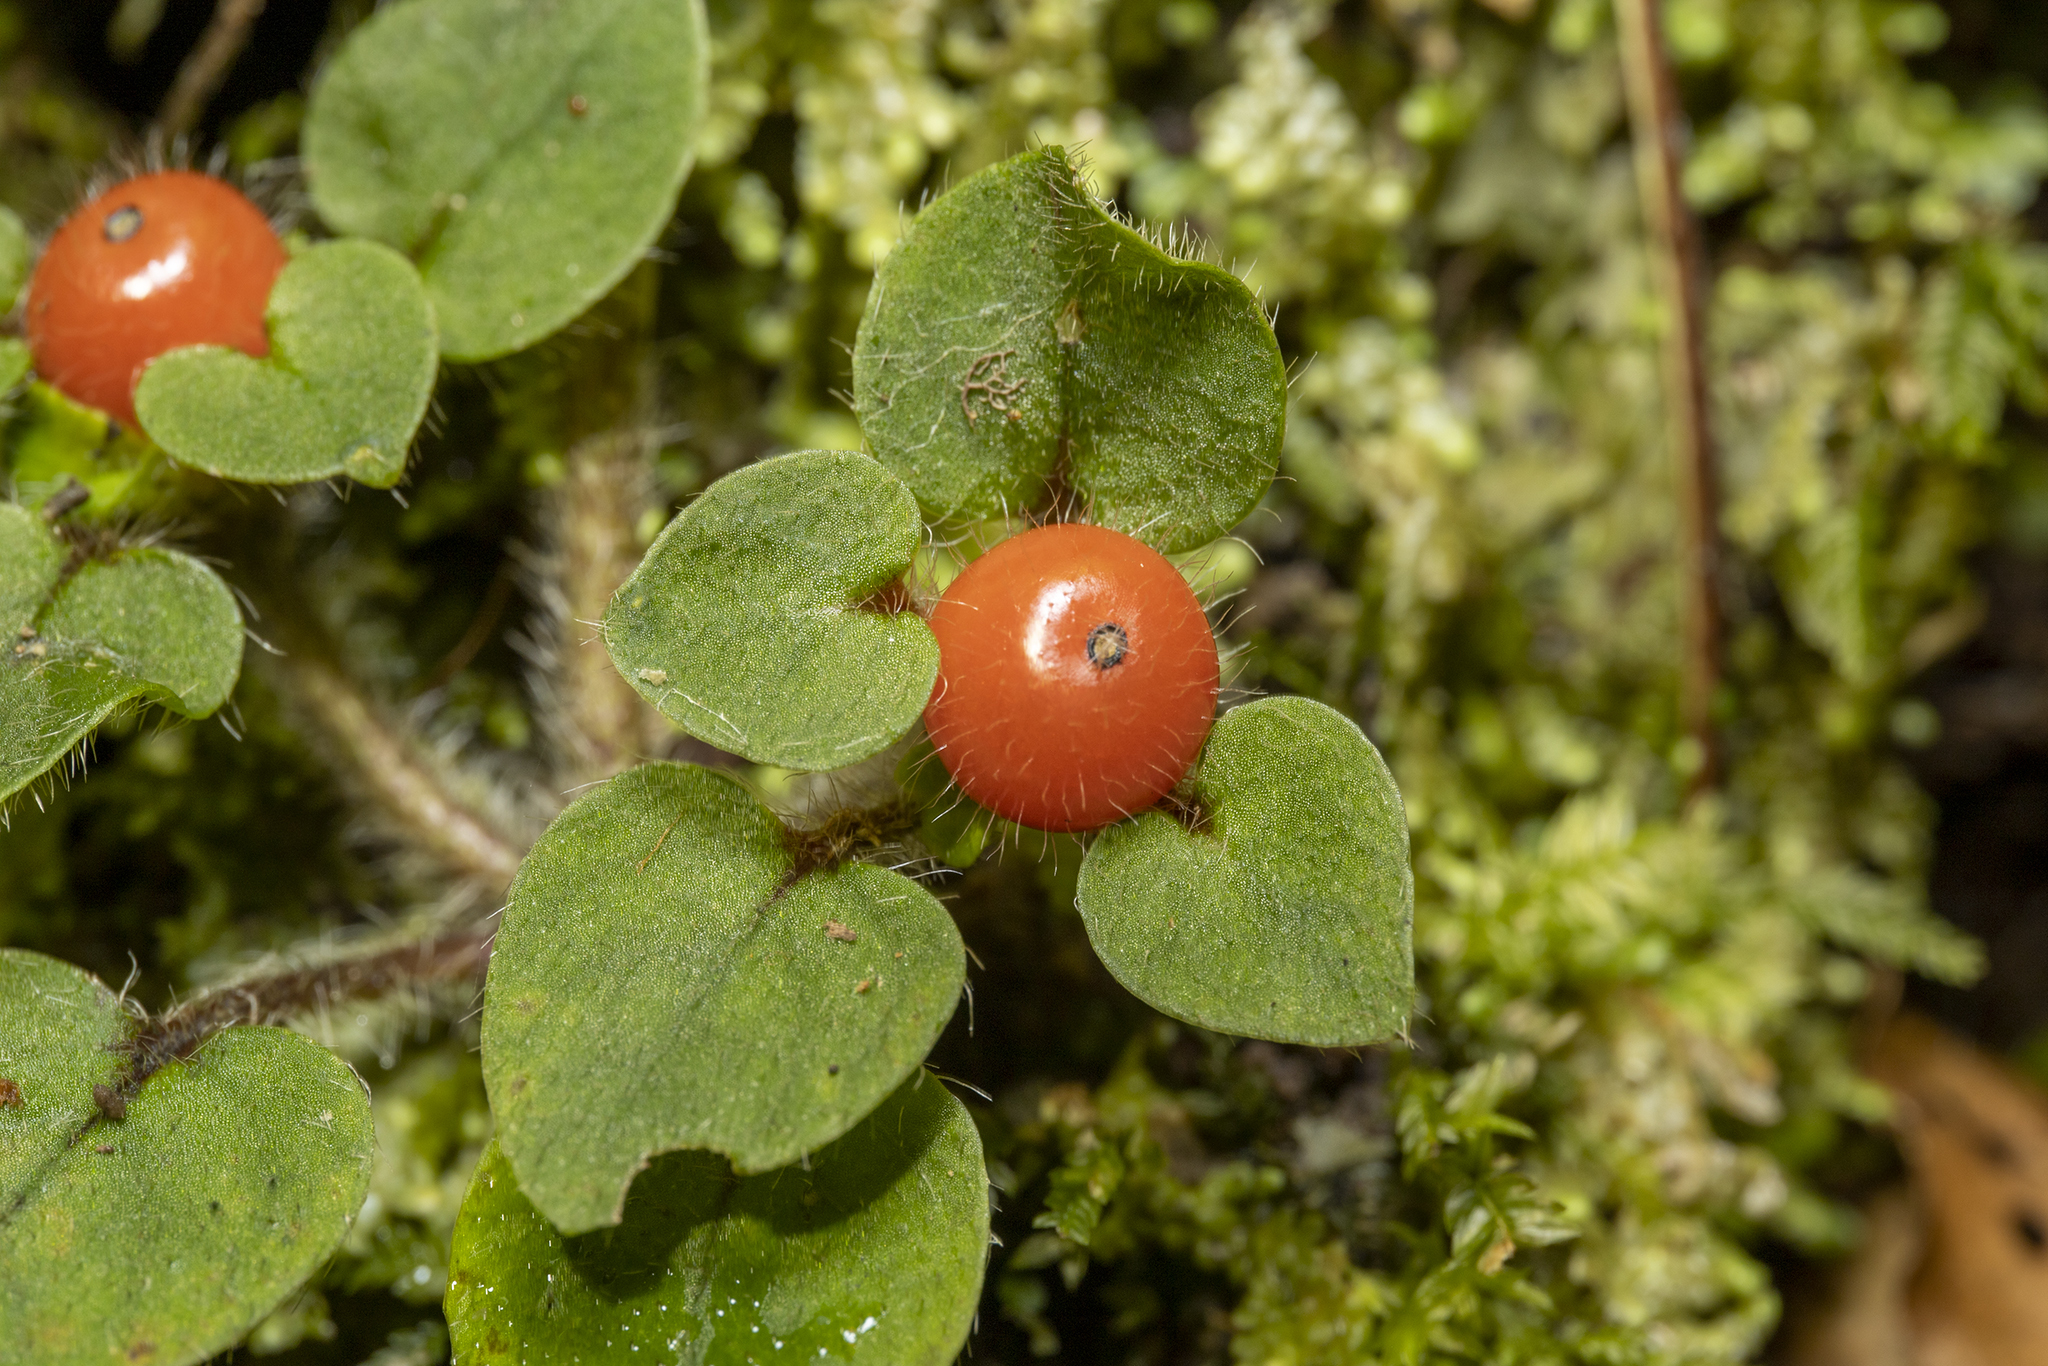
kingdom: Plantae
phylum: Tracheophyta
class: Magnoliopsida
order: Gentianales
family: Rubiaceae
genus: Nertera
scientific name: Nertera villosa
